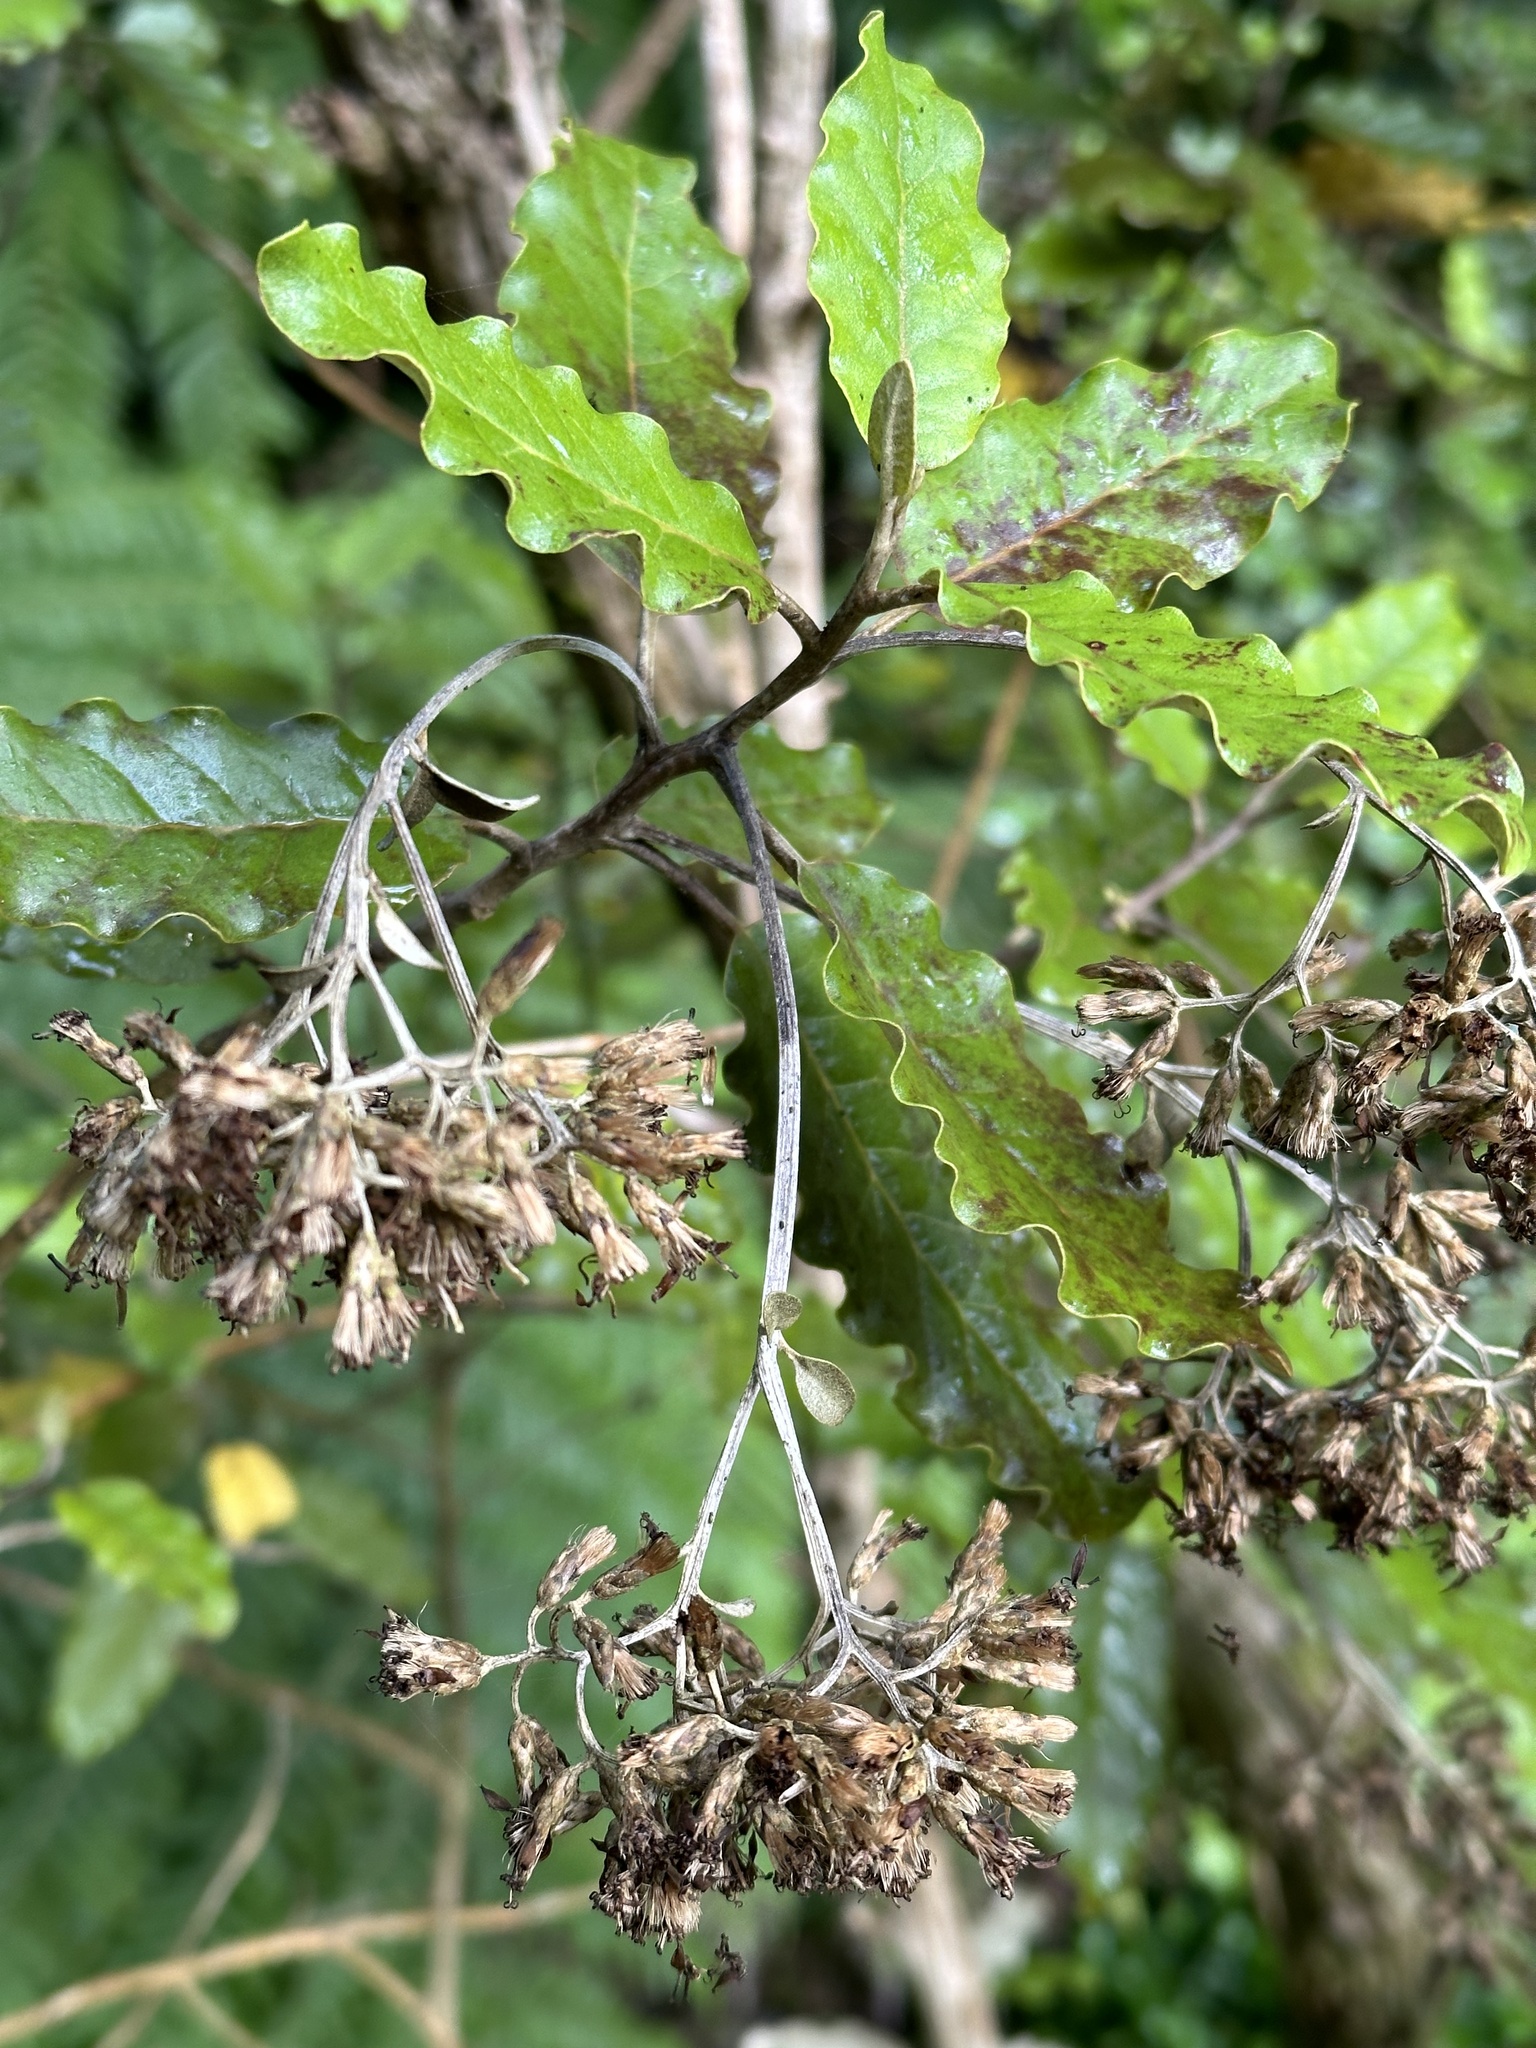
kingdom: Plantae
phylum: Tracheophyta
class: Magnoliopsida
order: Asterales
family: Asteraceae
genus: Olearia
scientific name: Olearia paniculata
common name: Akiraho
